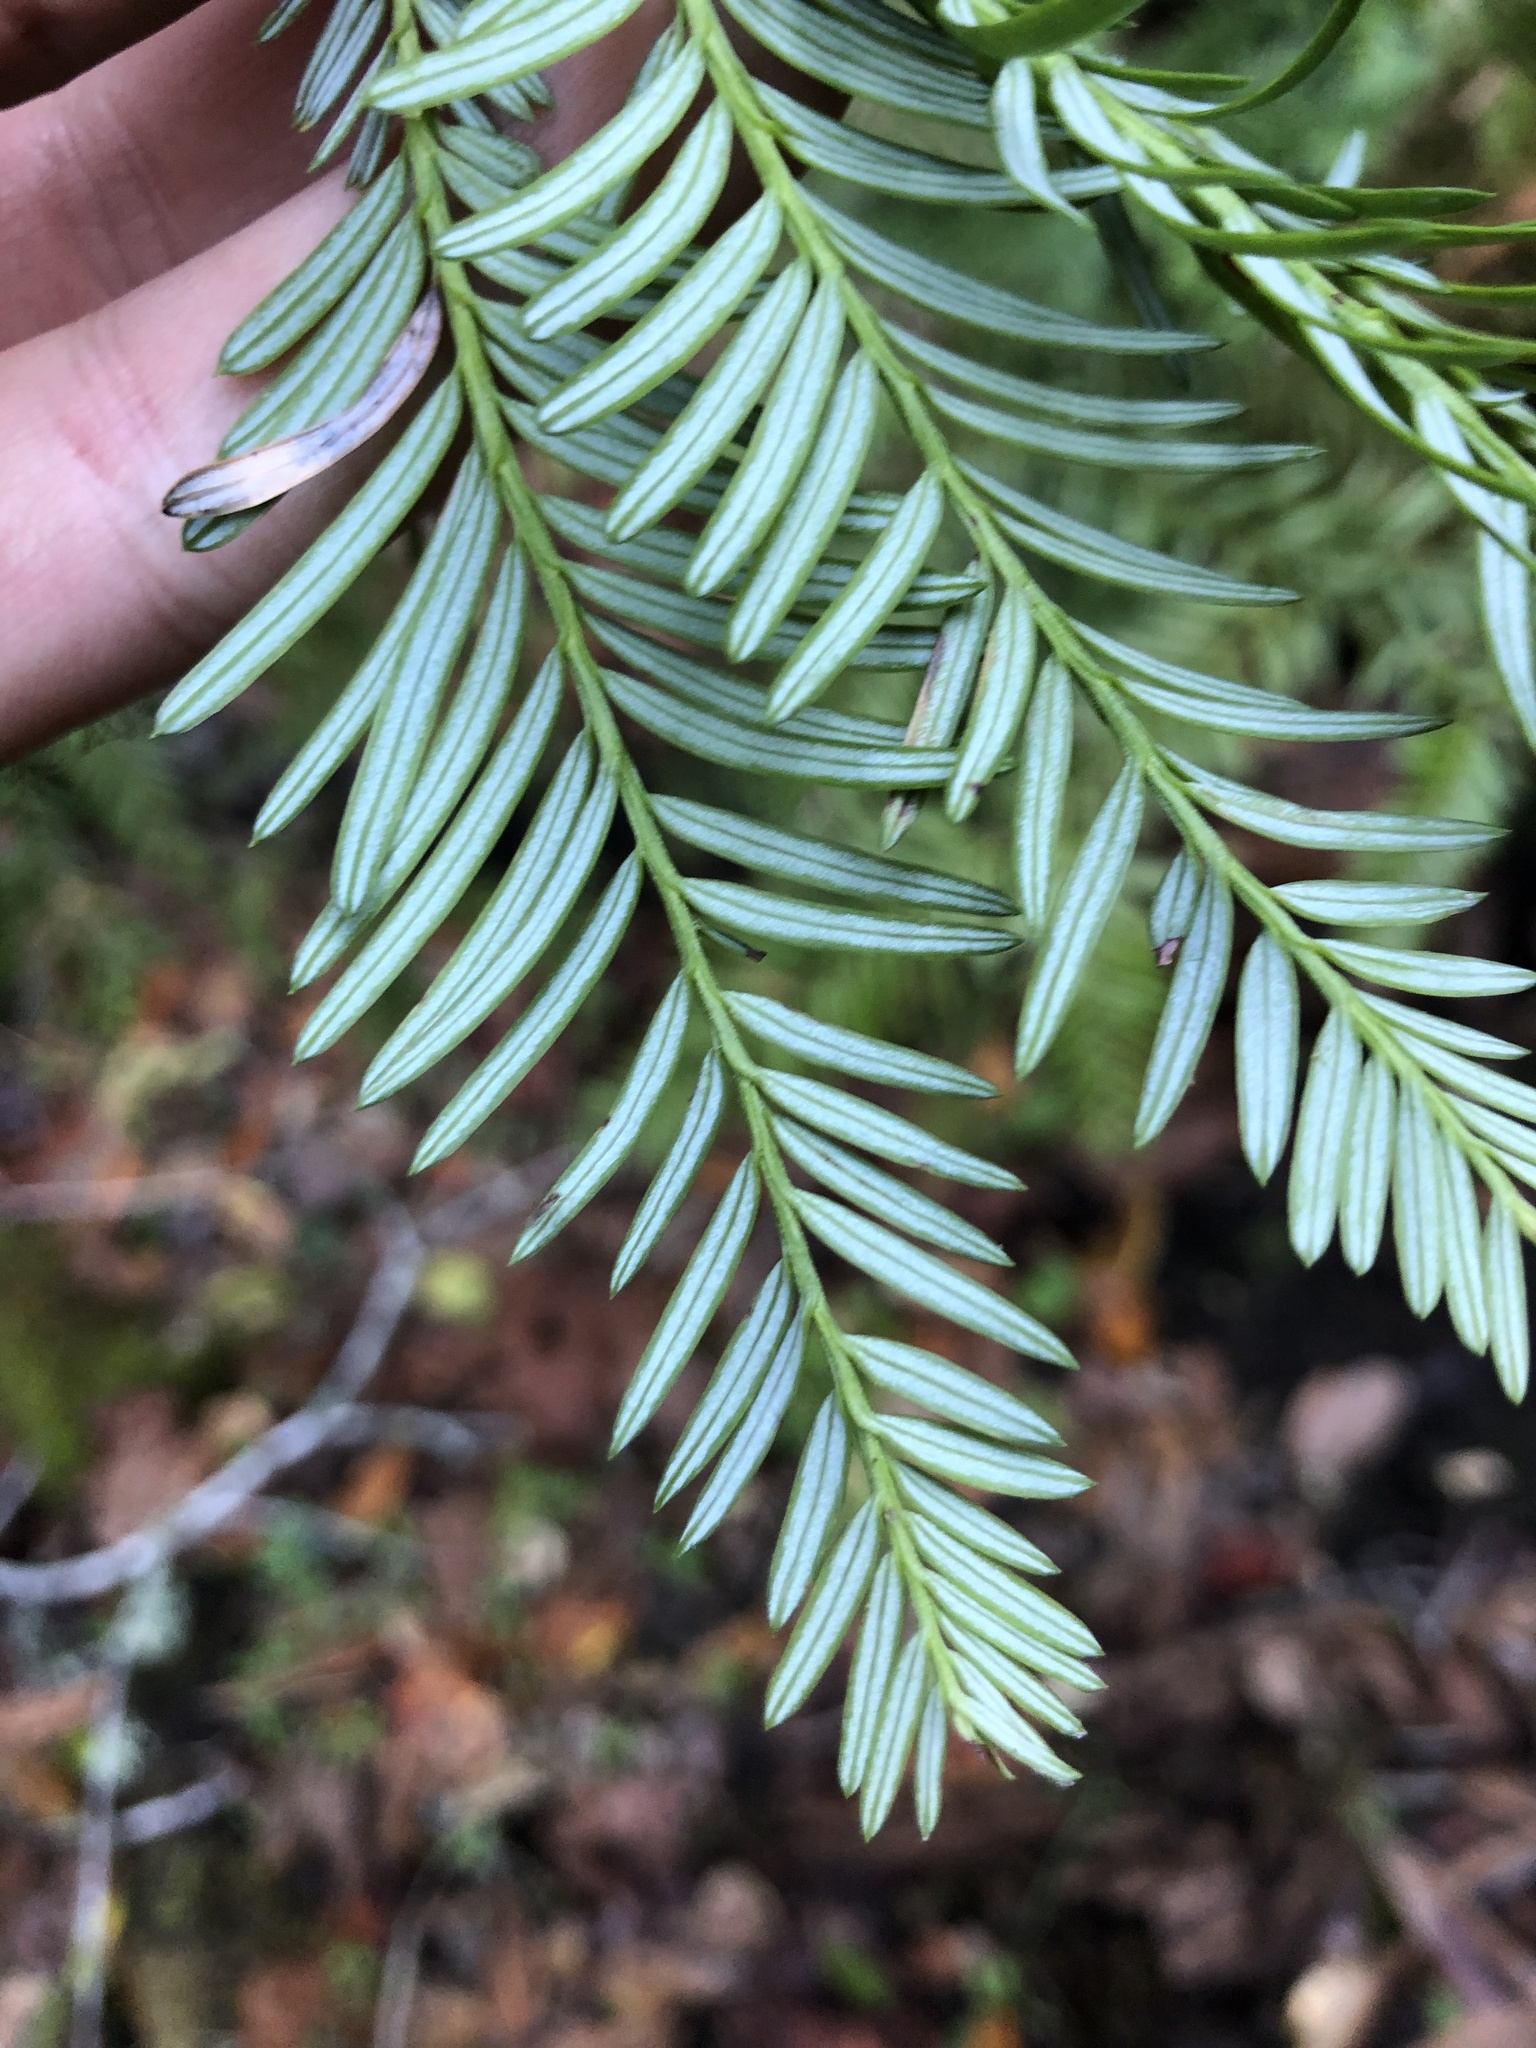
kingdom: Plantae
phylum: Tracheophyta
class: Pinopsida
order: Pinales
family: Cupressaceae
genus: Sequoia
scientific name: Sequoia sempervirens
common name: Coast redwood
